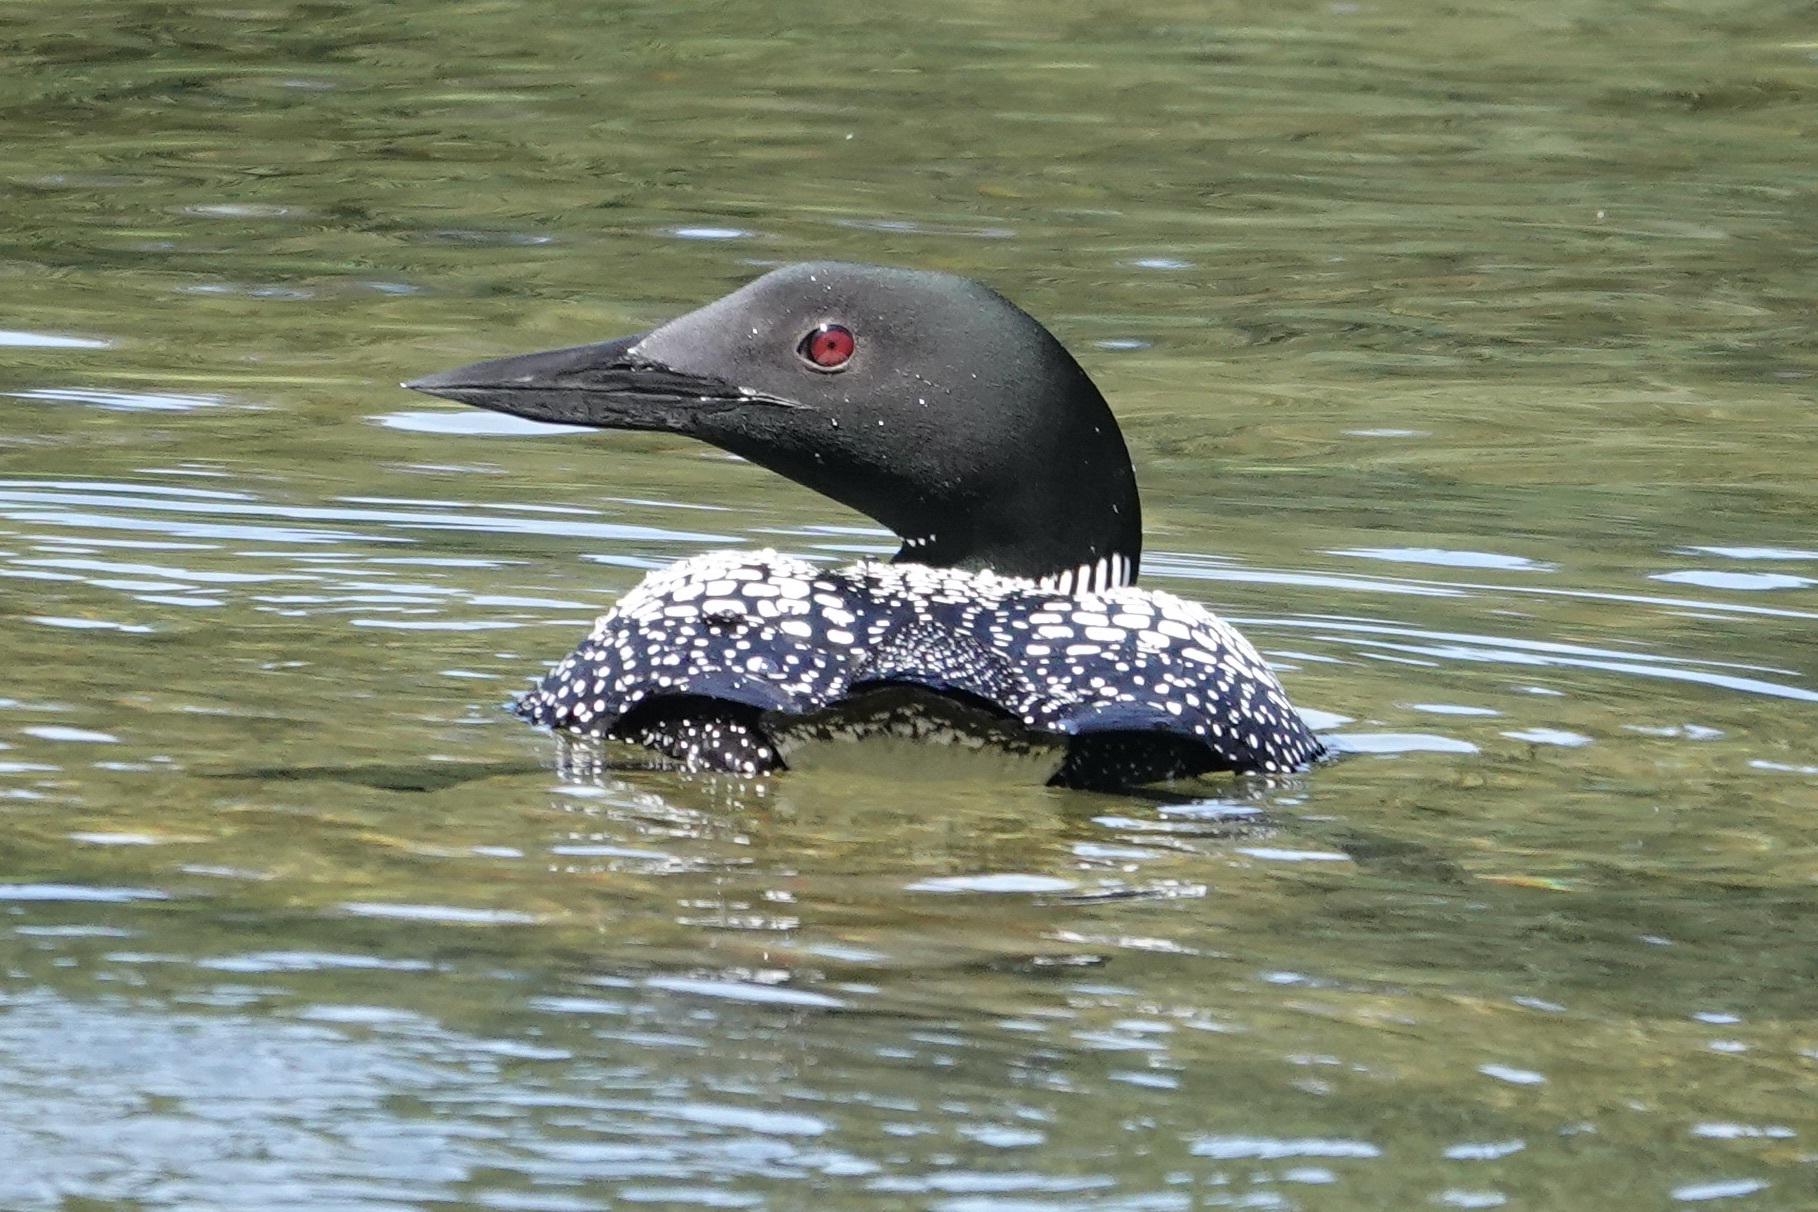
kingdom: Animalia
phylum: Chordata
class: Aves
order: Gaviiformes
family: Gaviidae
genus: Gavia
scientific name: Gavia immer
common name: Common loon
